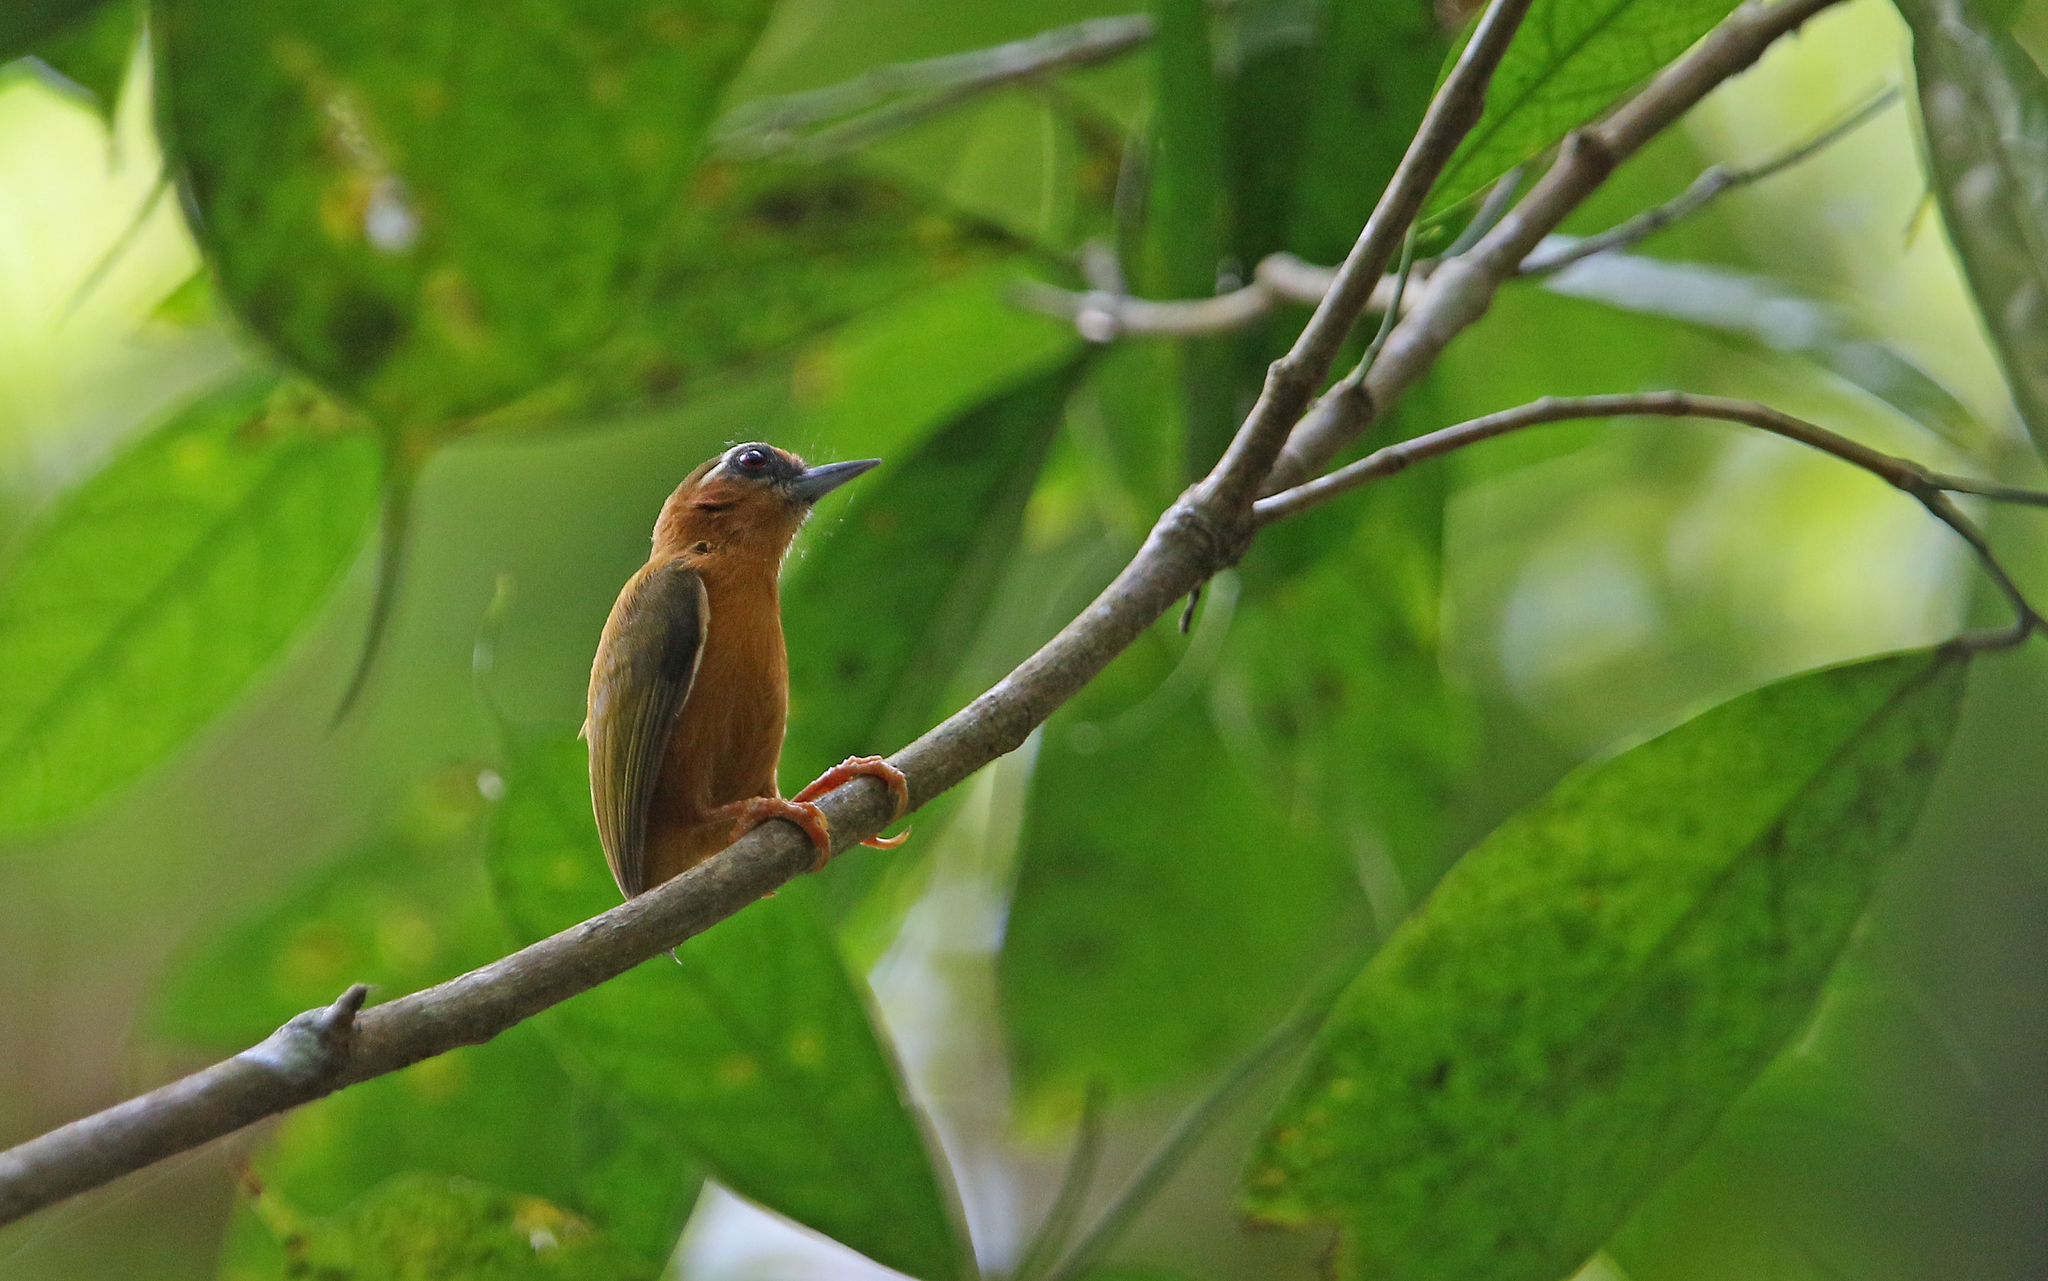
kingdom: Animalia
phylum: Chordata
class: Aves
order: Piciformes
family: Picidae
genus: Sasia
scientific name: Sasia ochracea
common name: White-browed piculet
